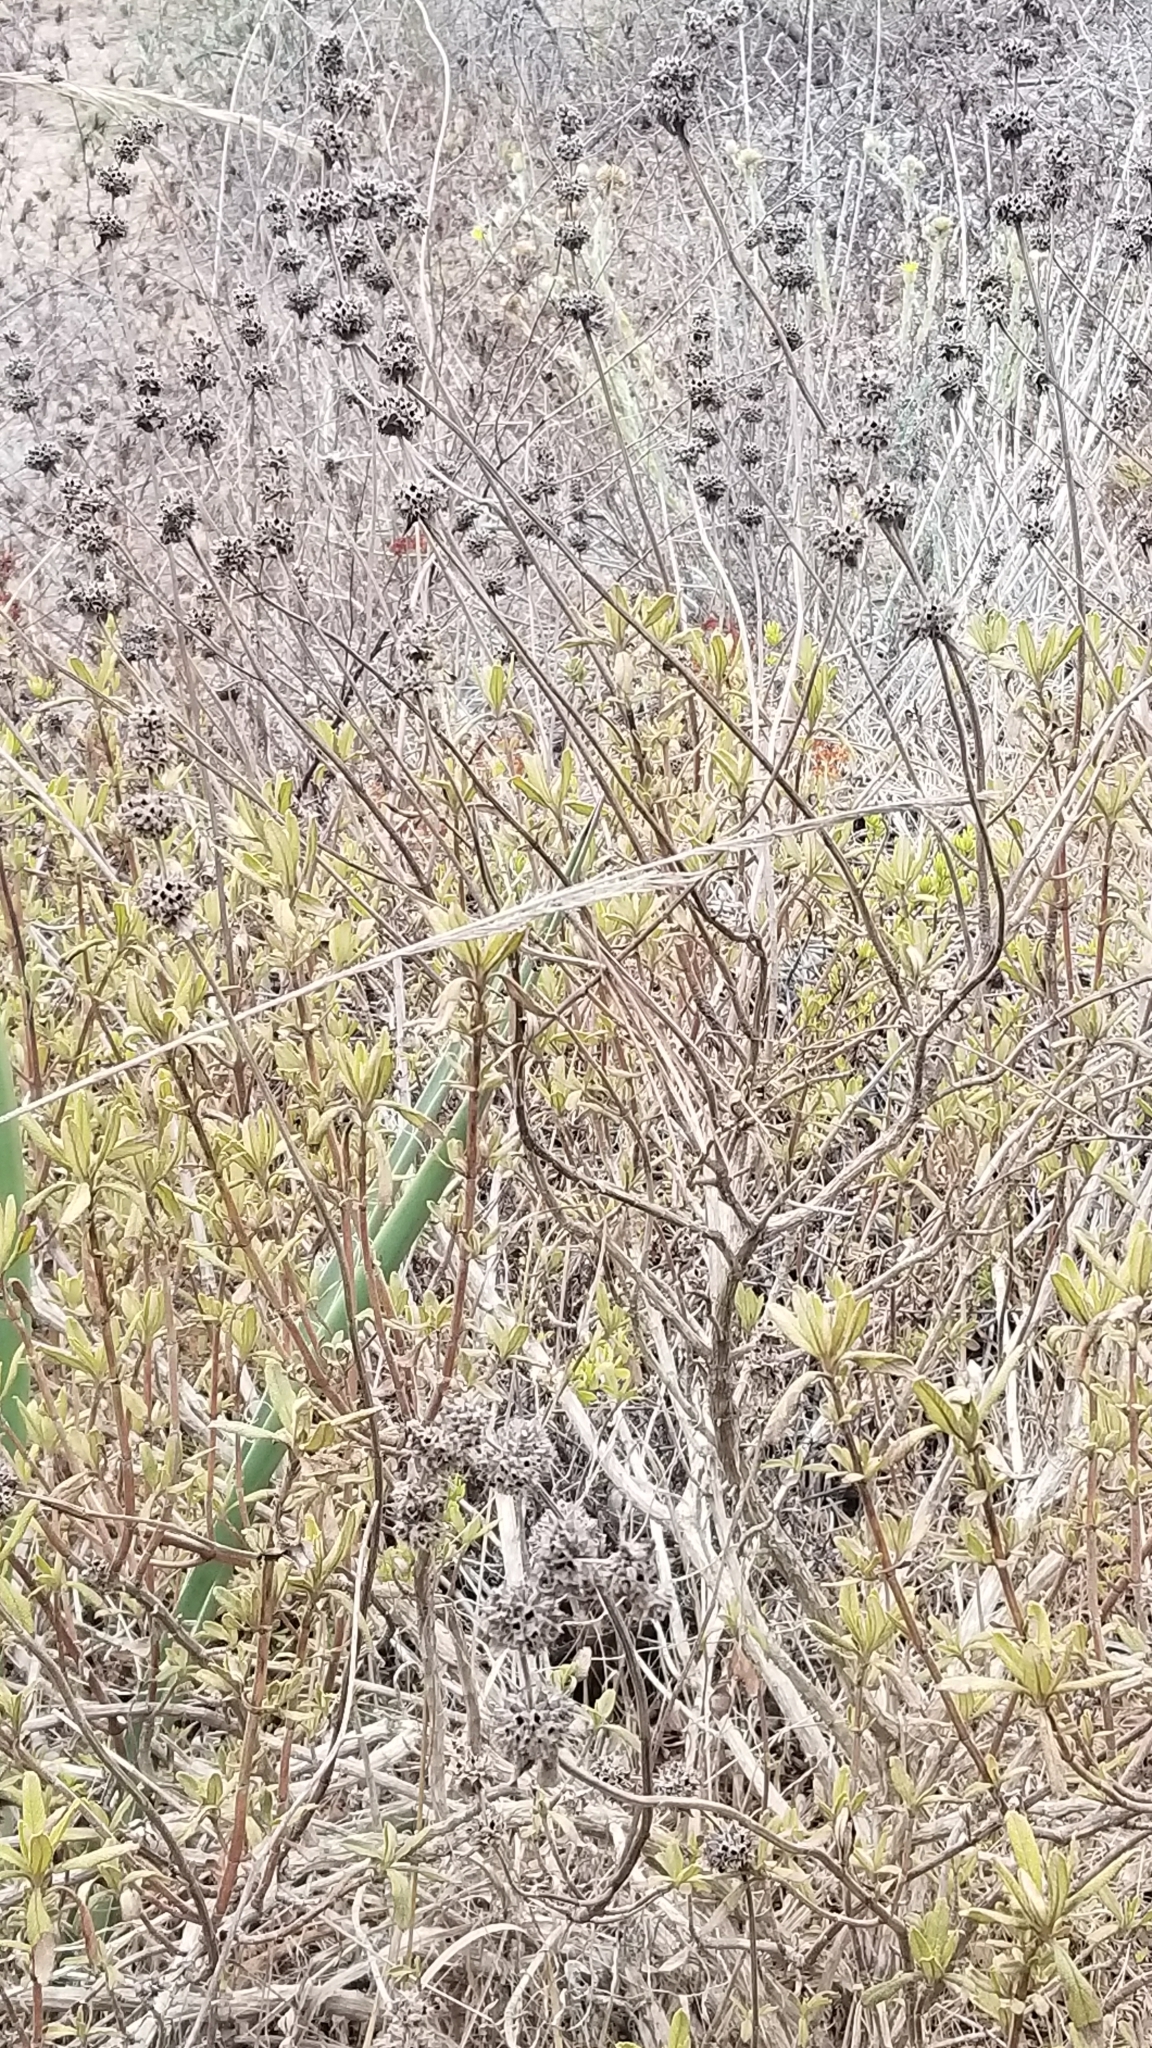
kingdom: Plantae
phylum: Tracheophyta
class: Magnoliopsida
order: Lamiales
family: Lamiaceae
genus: Salvia
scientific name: Salvia mellifera
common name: Black sage
